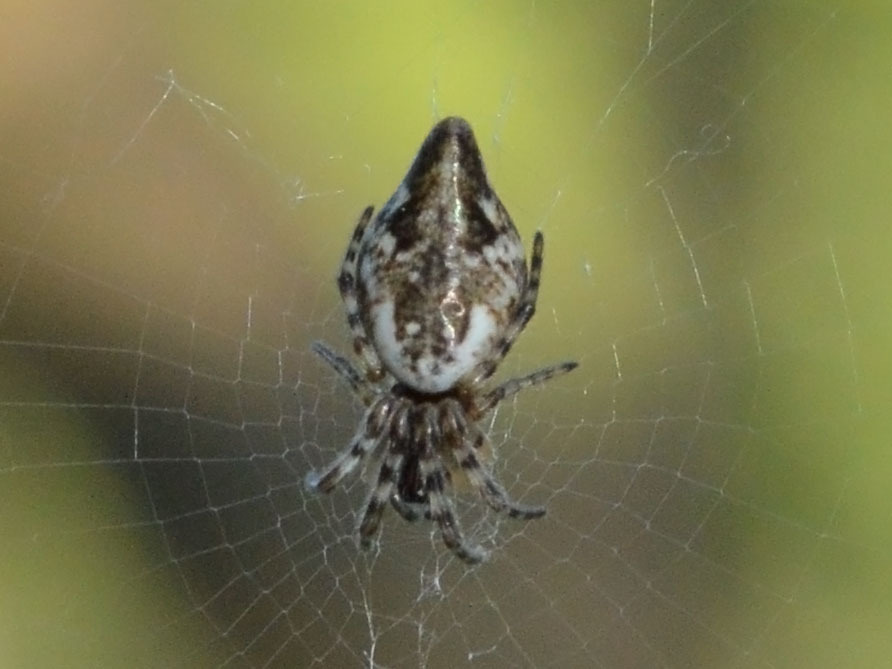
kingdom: Animalia
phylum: Arthropoda
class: Arachnida
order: Araneae
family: Araneidae
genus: Cyclosa
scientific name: Cyclosa conica
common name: Conical trashline orbweaver
